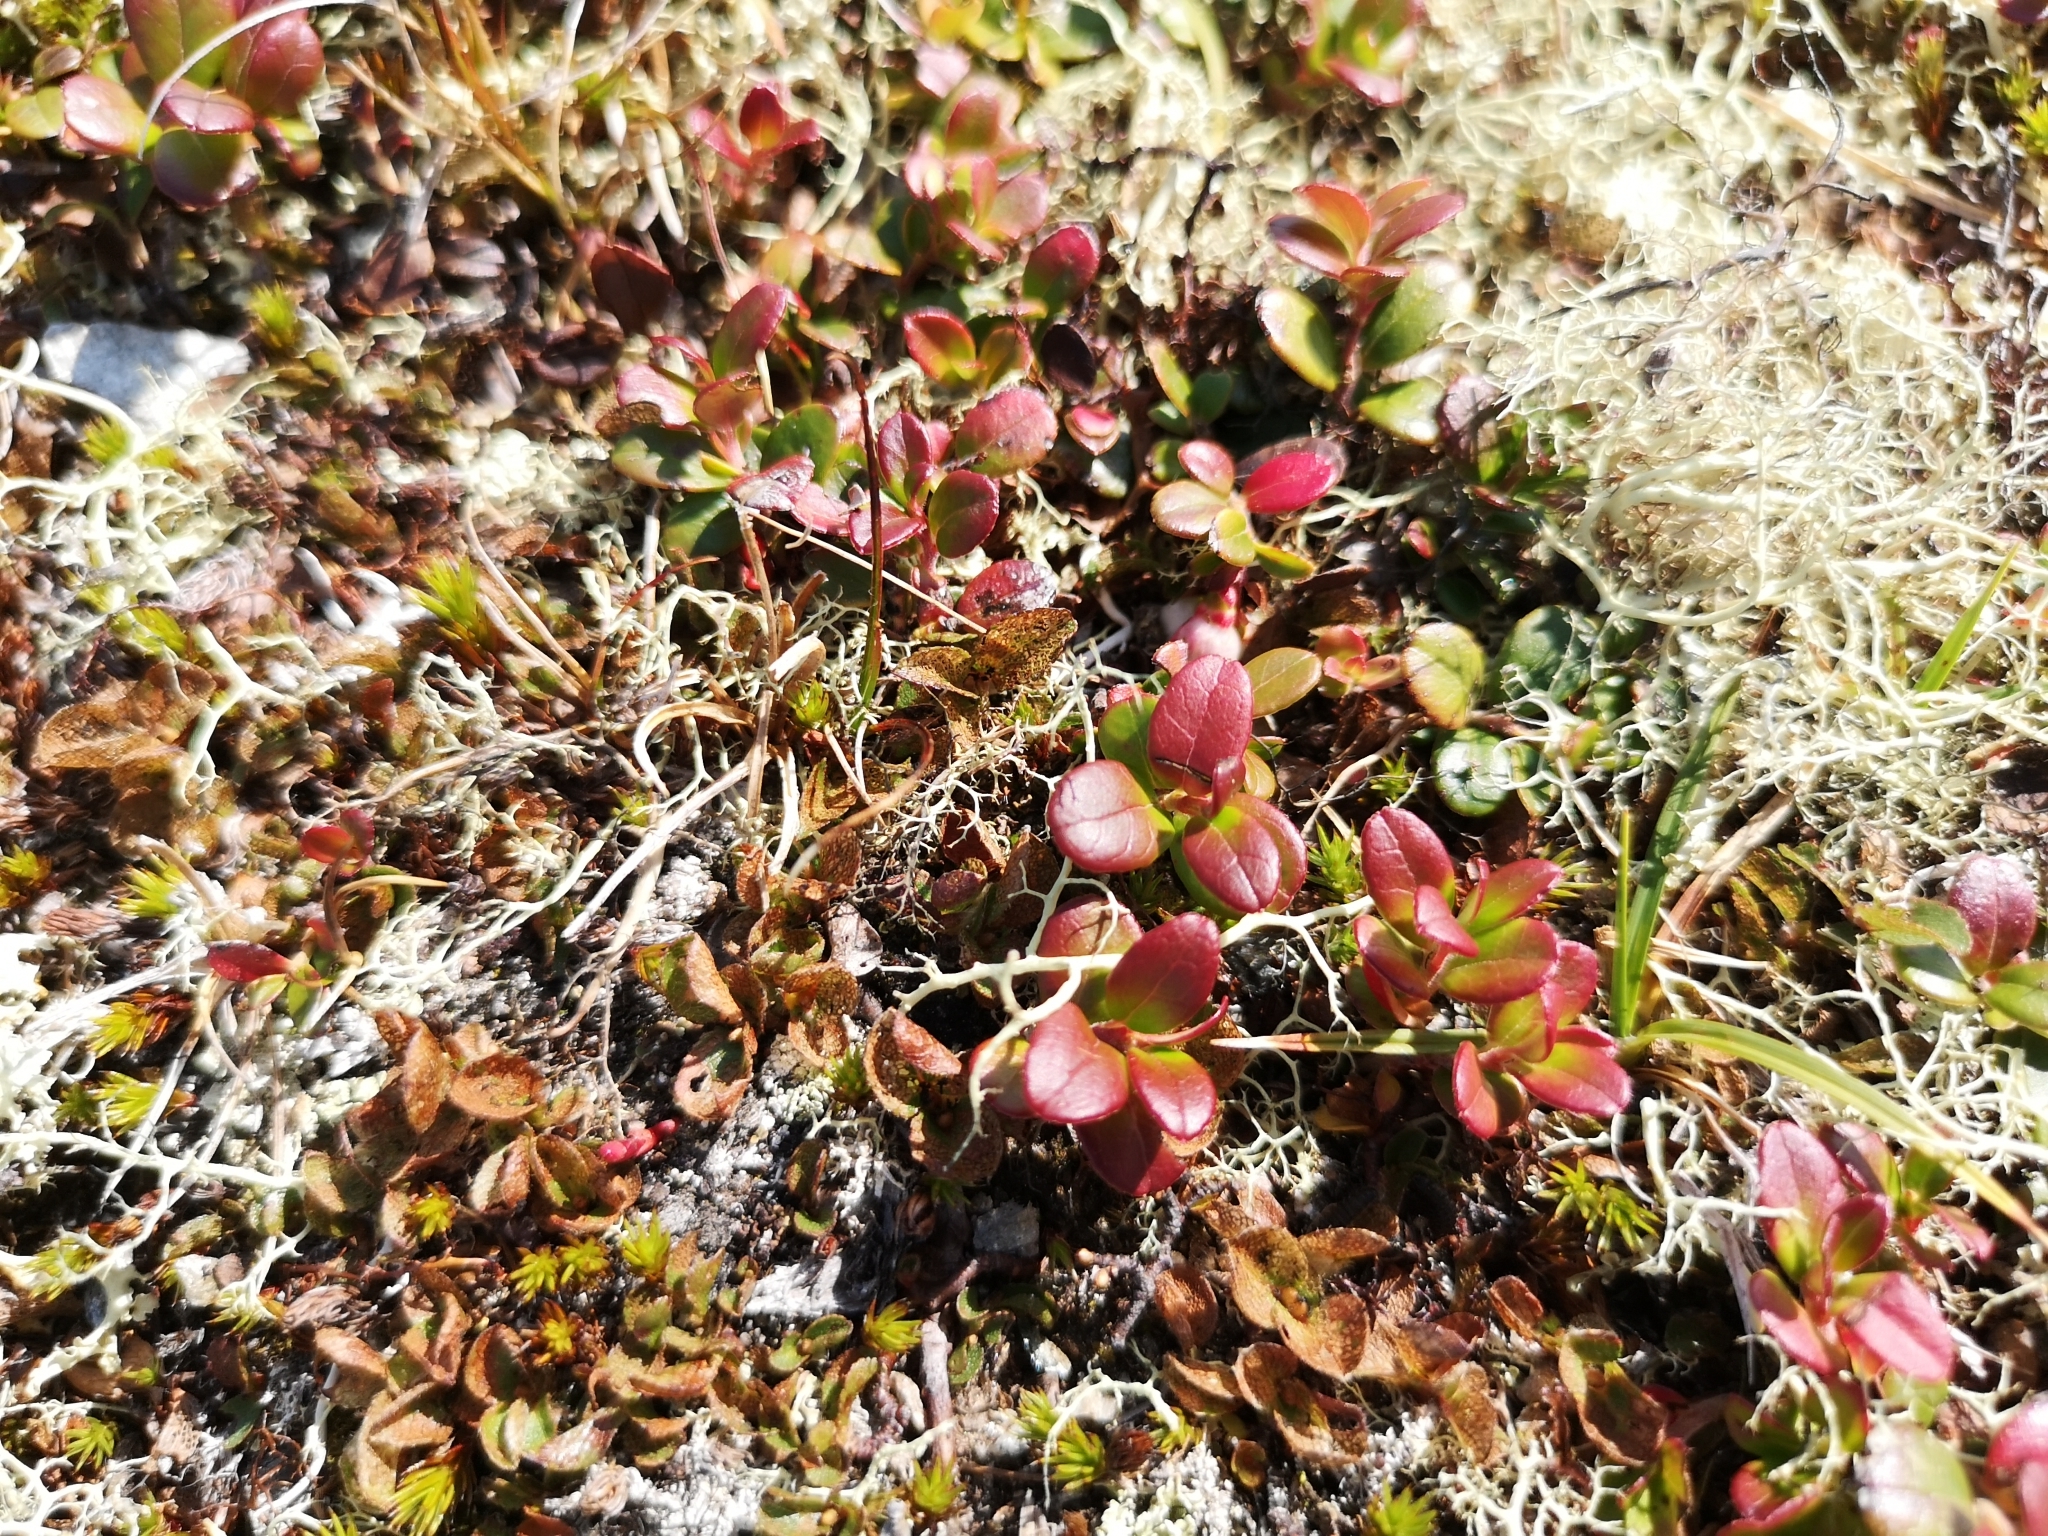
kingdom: Plantae
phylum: Tracheophyta
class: Magnoliopsida
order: Ericales
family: Ericaceae
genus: Vaccinium
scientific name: Vaccinium vitis-idaea
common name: Cowberry
